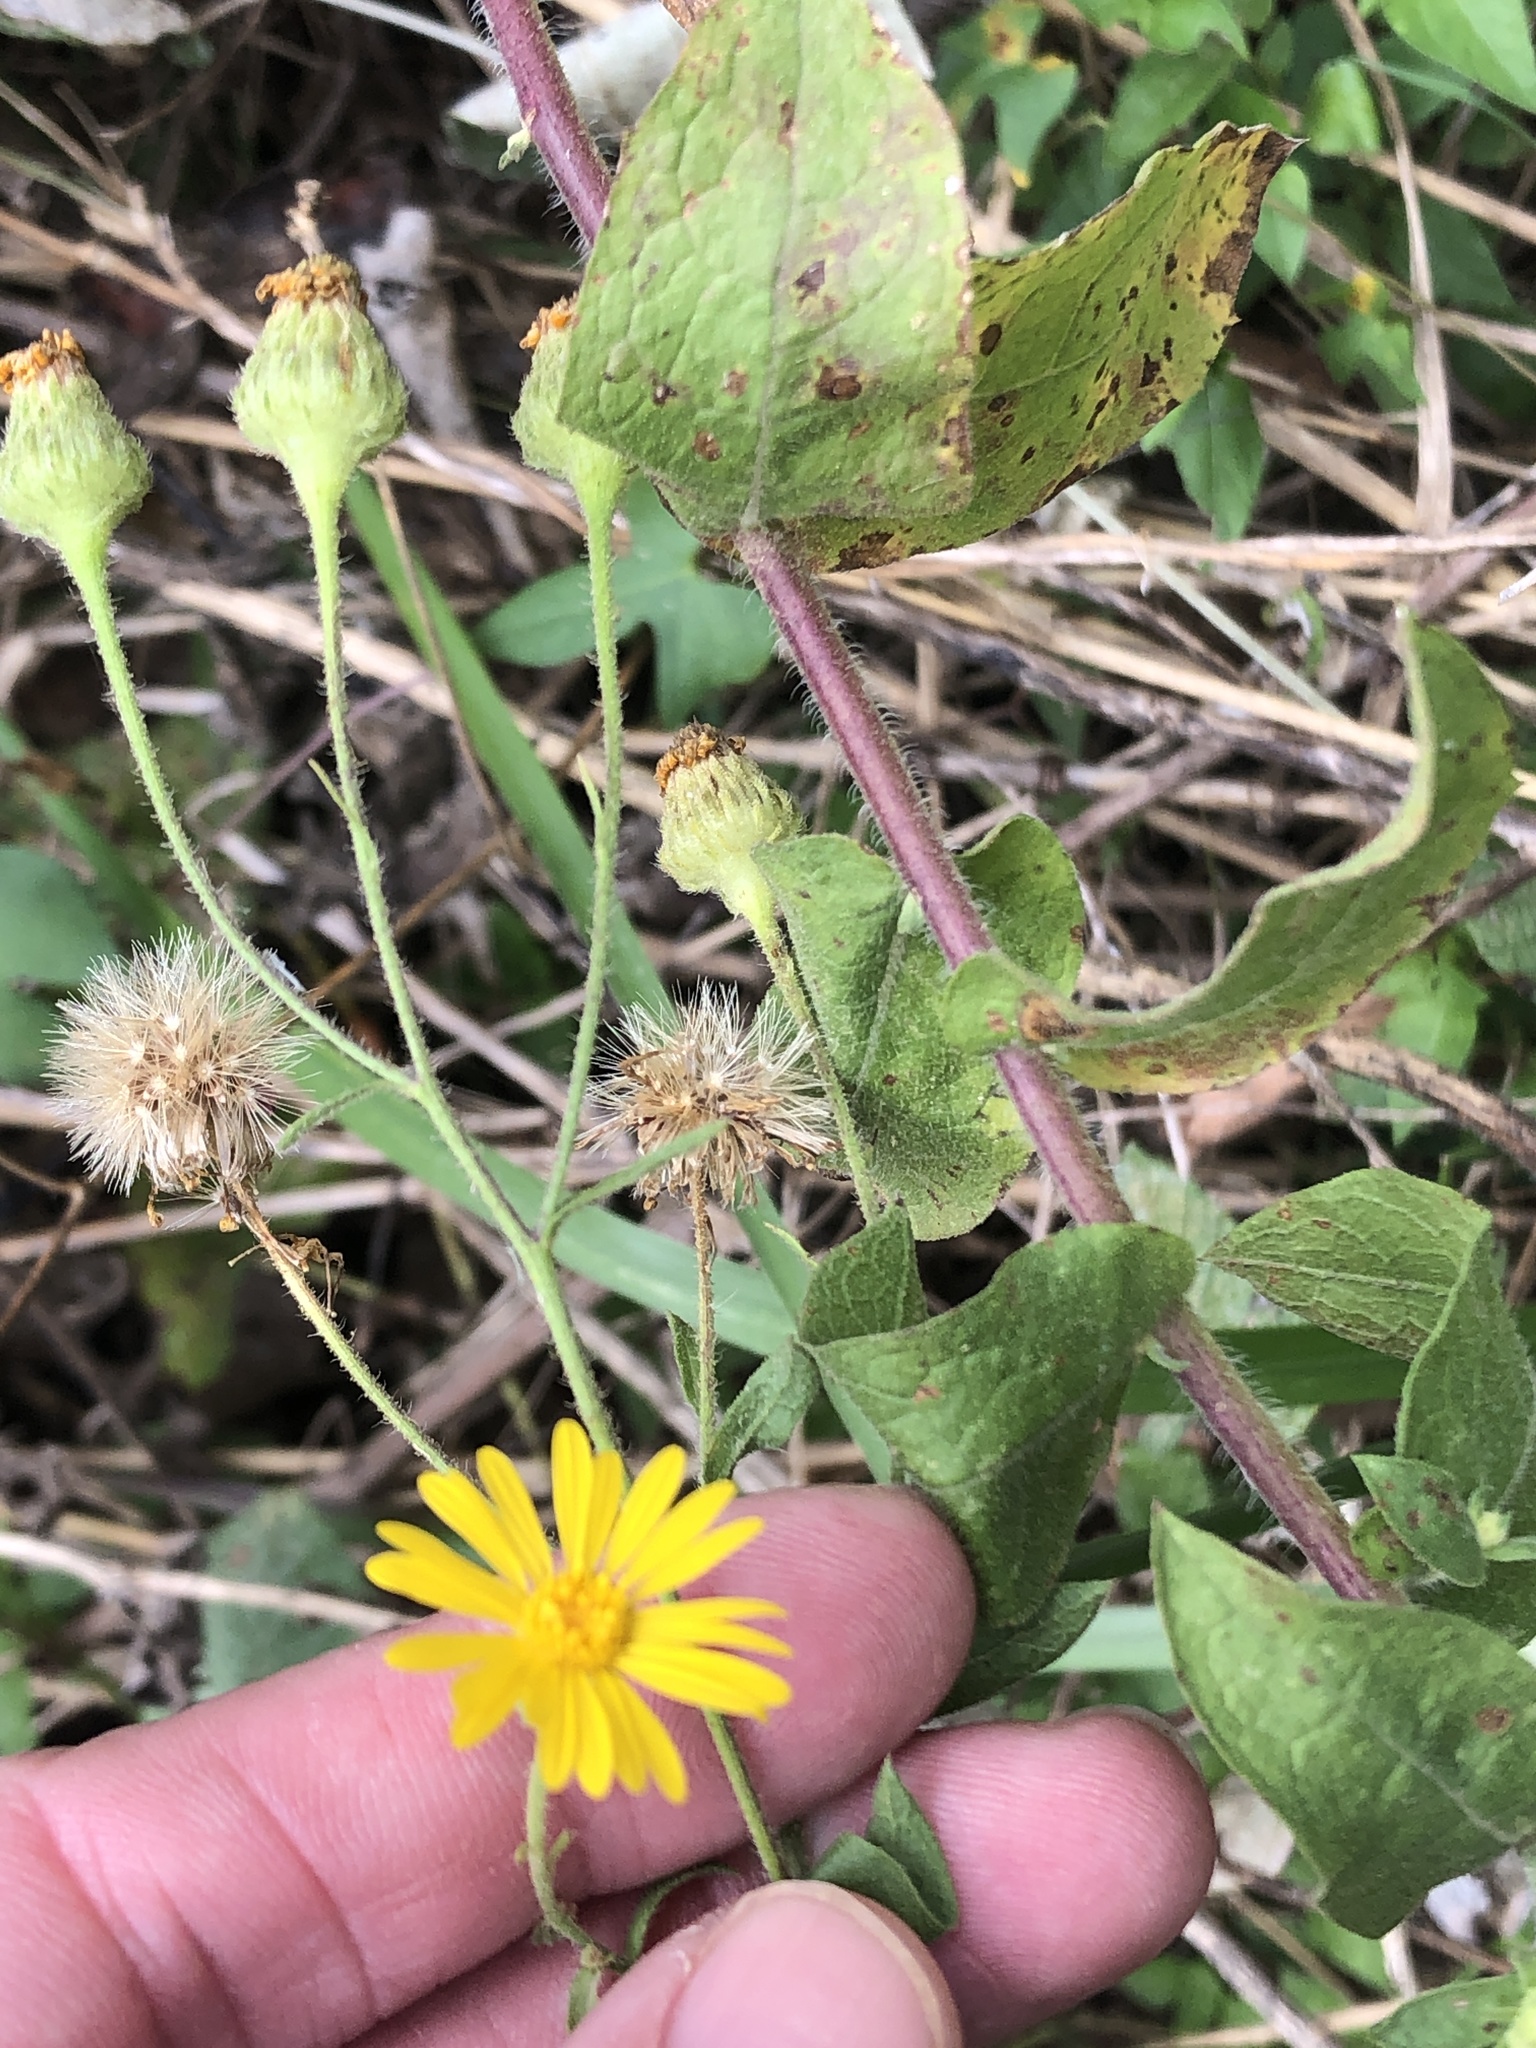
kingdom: Plantae
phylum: Tracheophyta
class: Magnoliopsida
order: Asterales
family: Asteraceae
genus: Heterotheca
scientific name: Heterotheca subaxillaris
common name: Camphorweed
